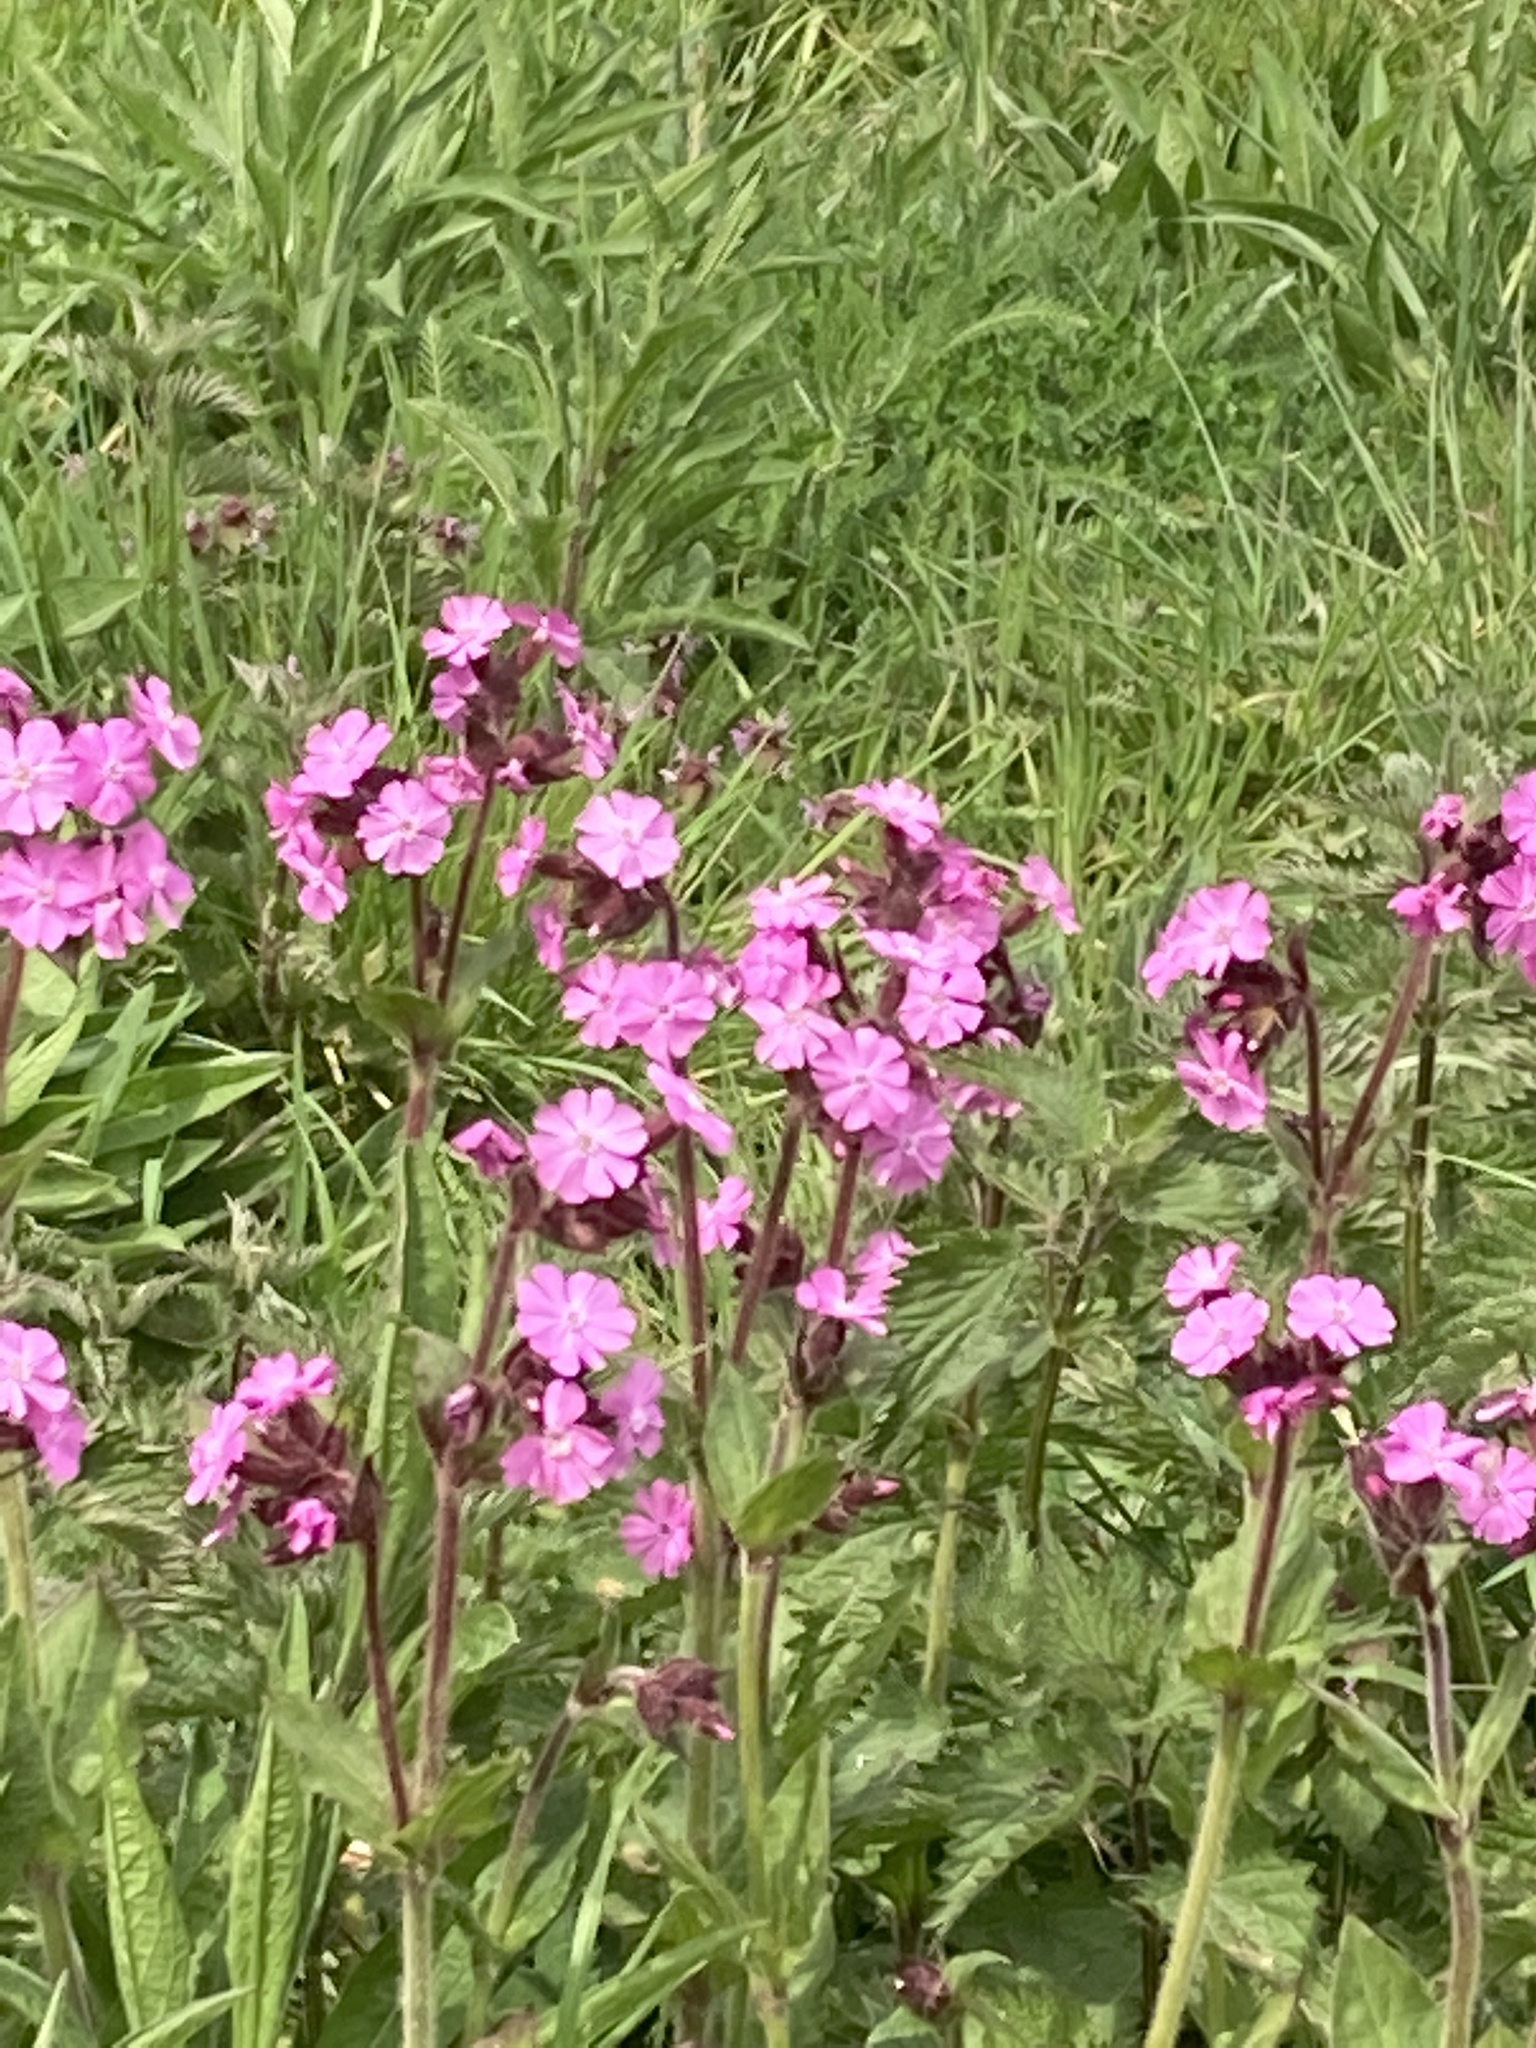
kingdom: Plantae
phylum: Tracheophyta
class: Magnoliopsida
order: Caryophyllales
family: Caryophyllaceae
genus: Silene
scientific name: Silene dioica
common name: Red campion
